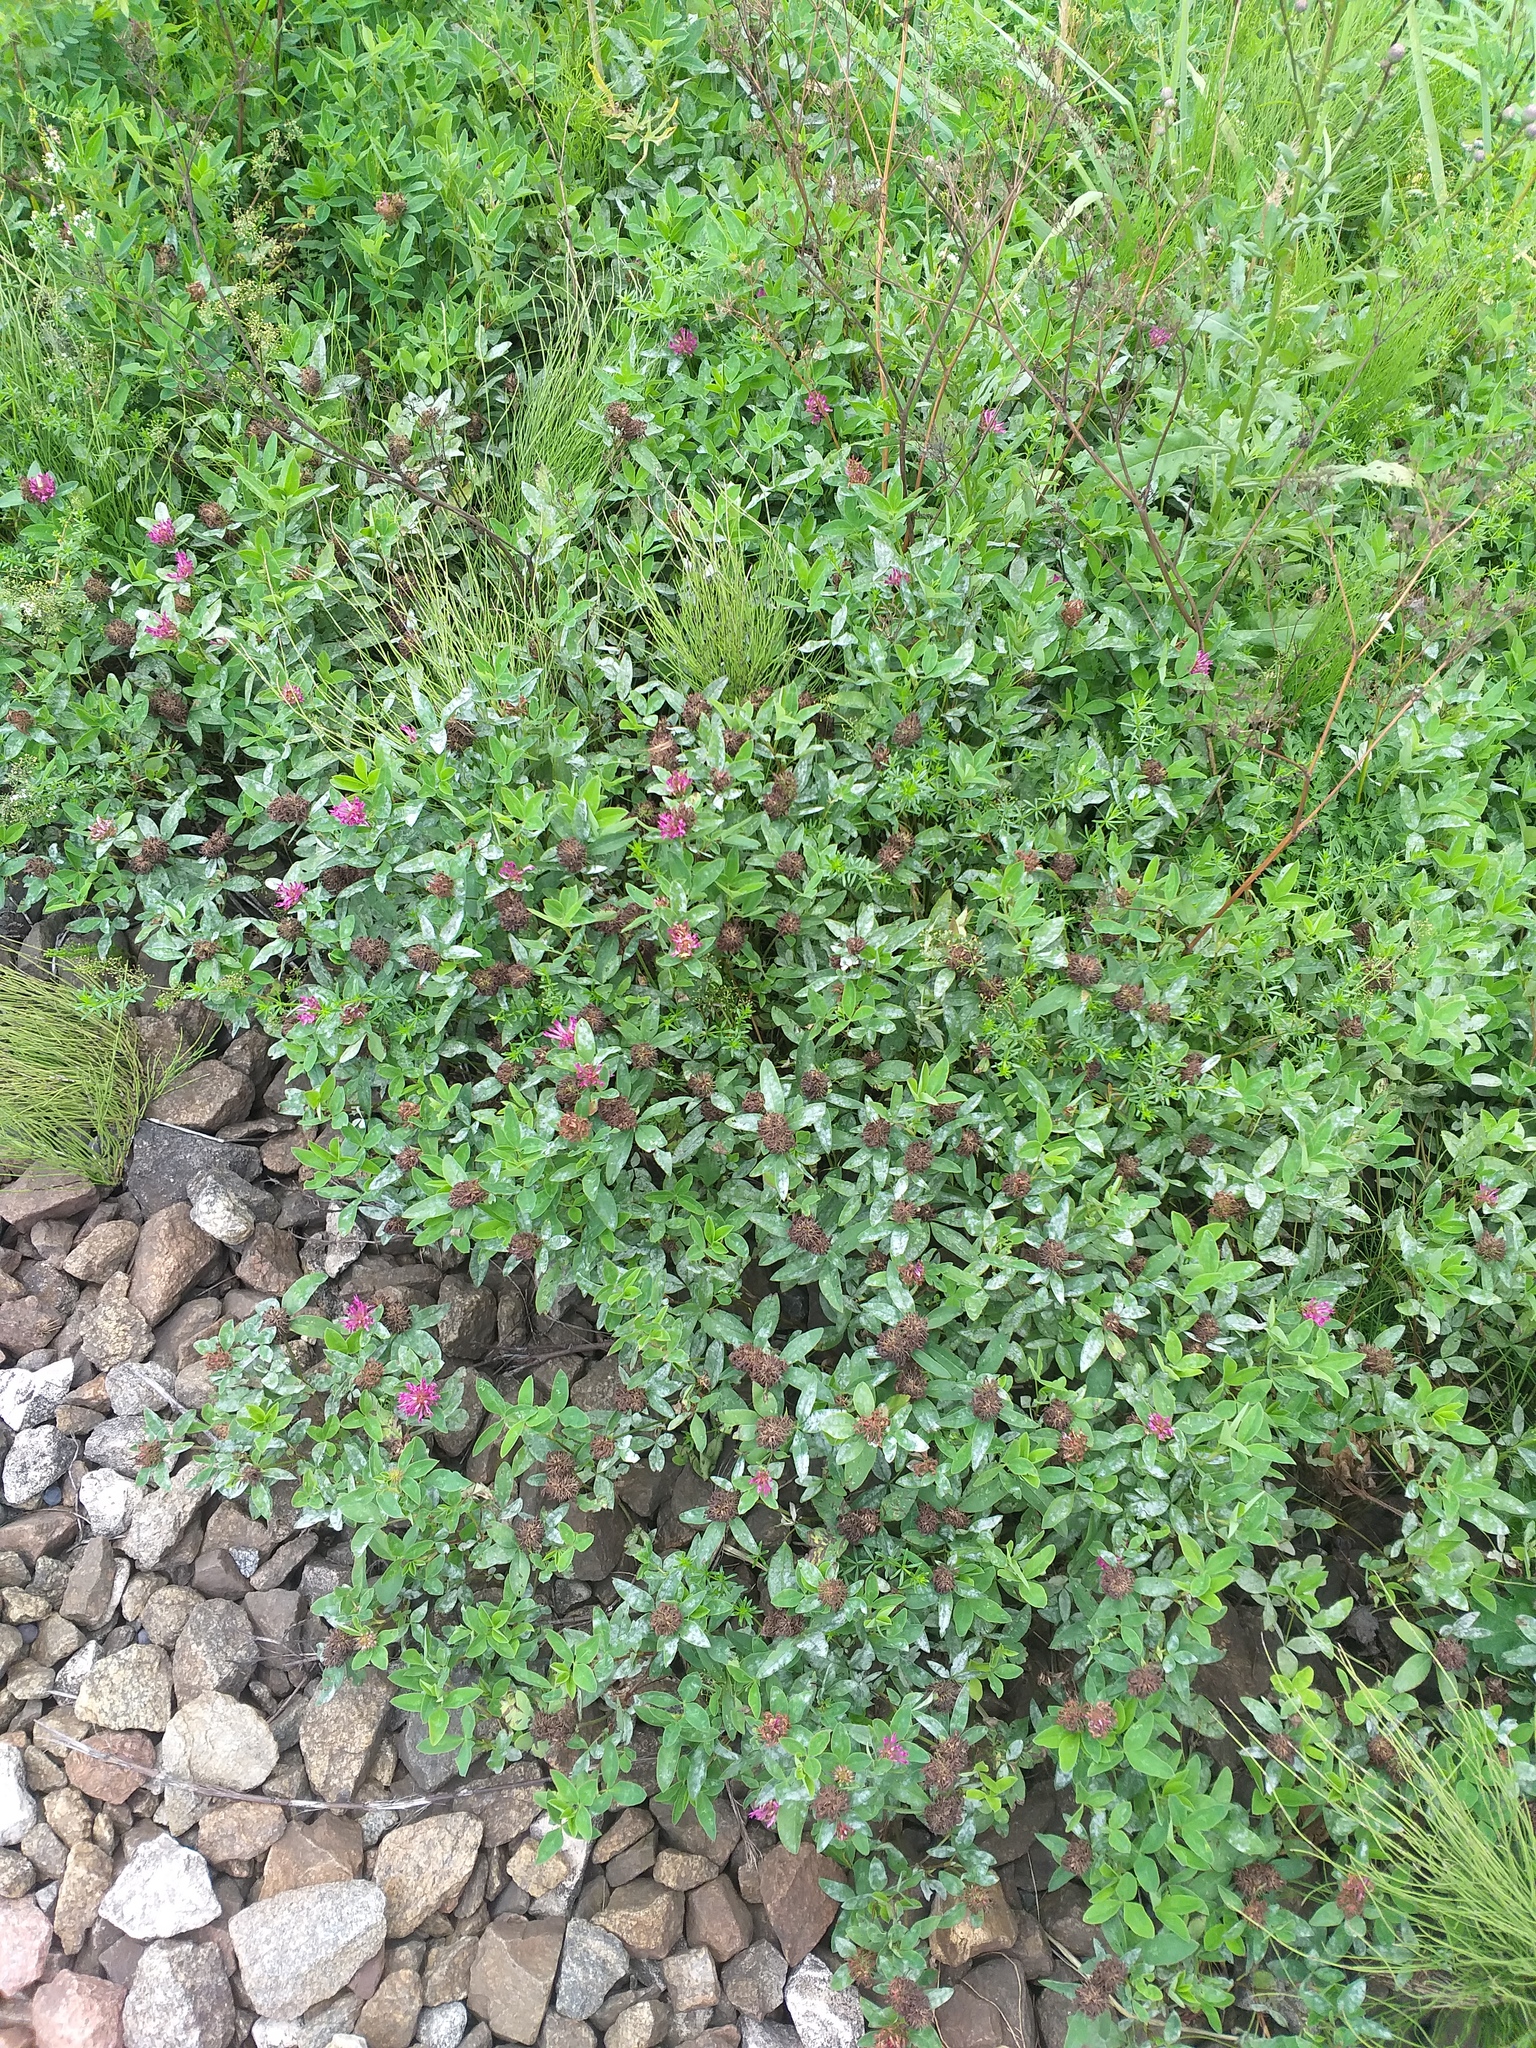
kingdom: Plantae
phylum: Tracheophyta
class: Magnoliopsida
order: Fabales
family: Fabaceae
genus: Trifolium
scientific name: Trifolium medium
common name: Zigzag clover
